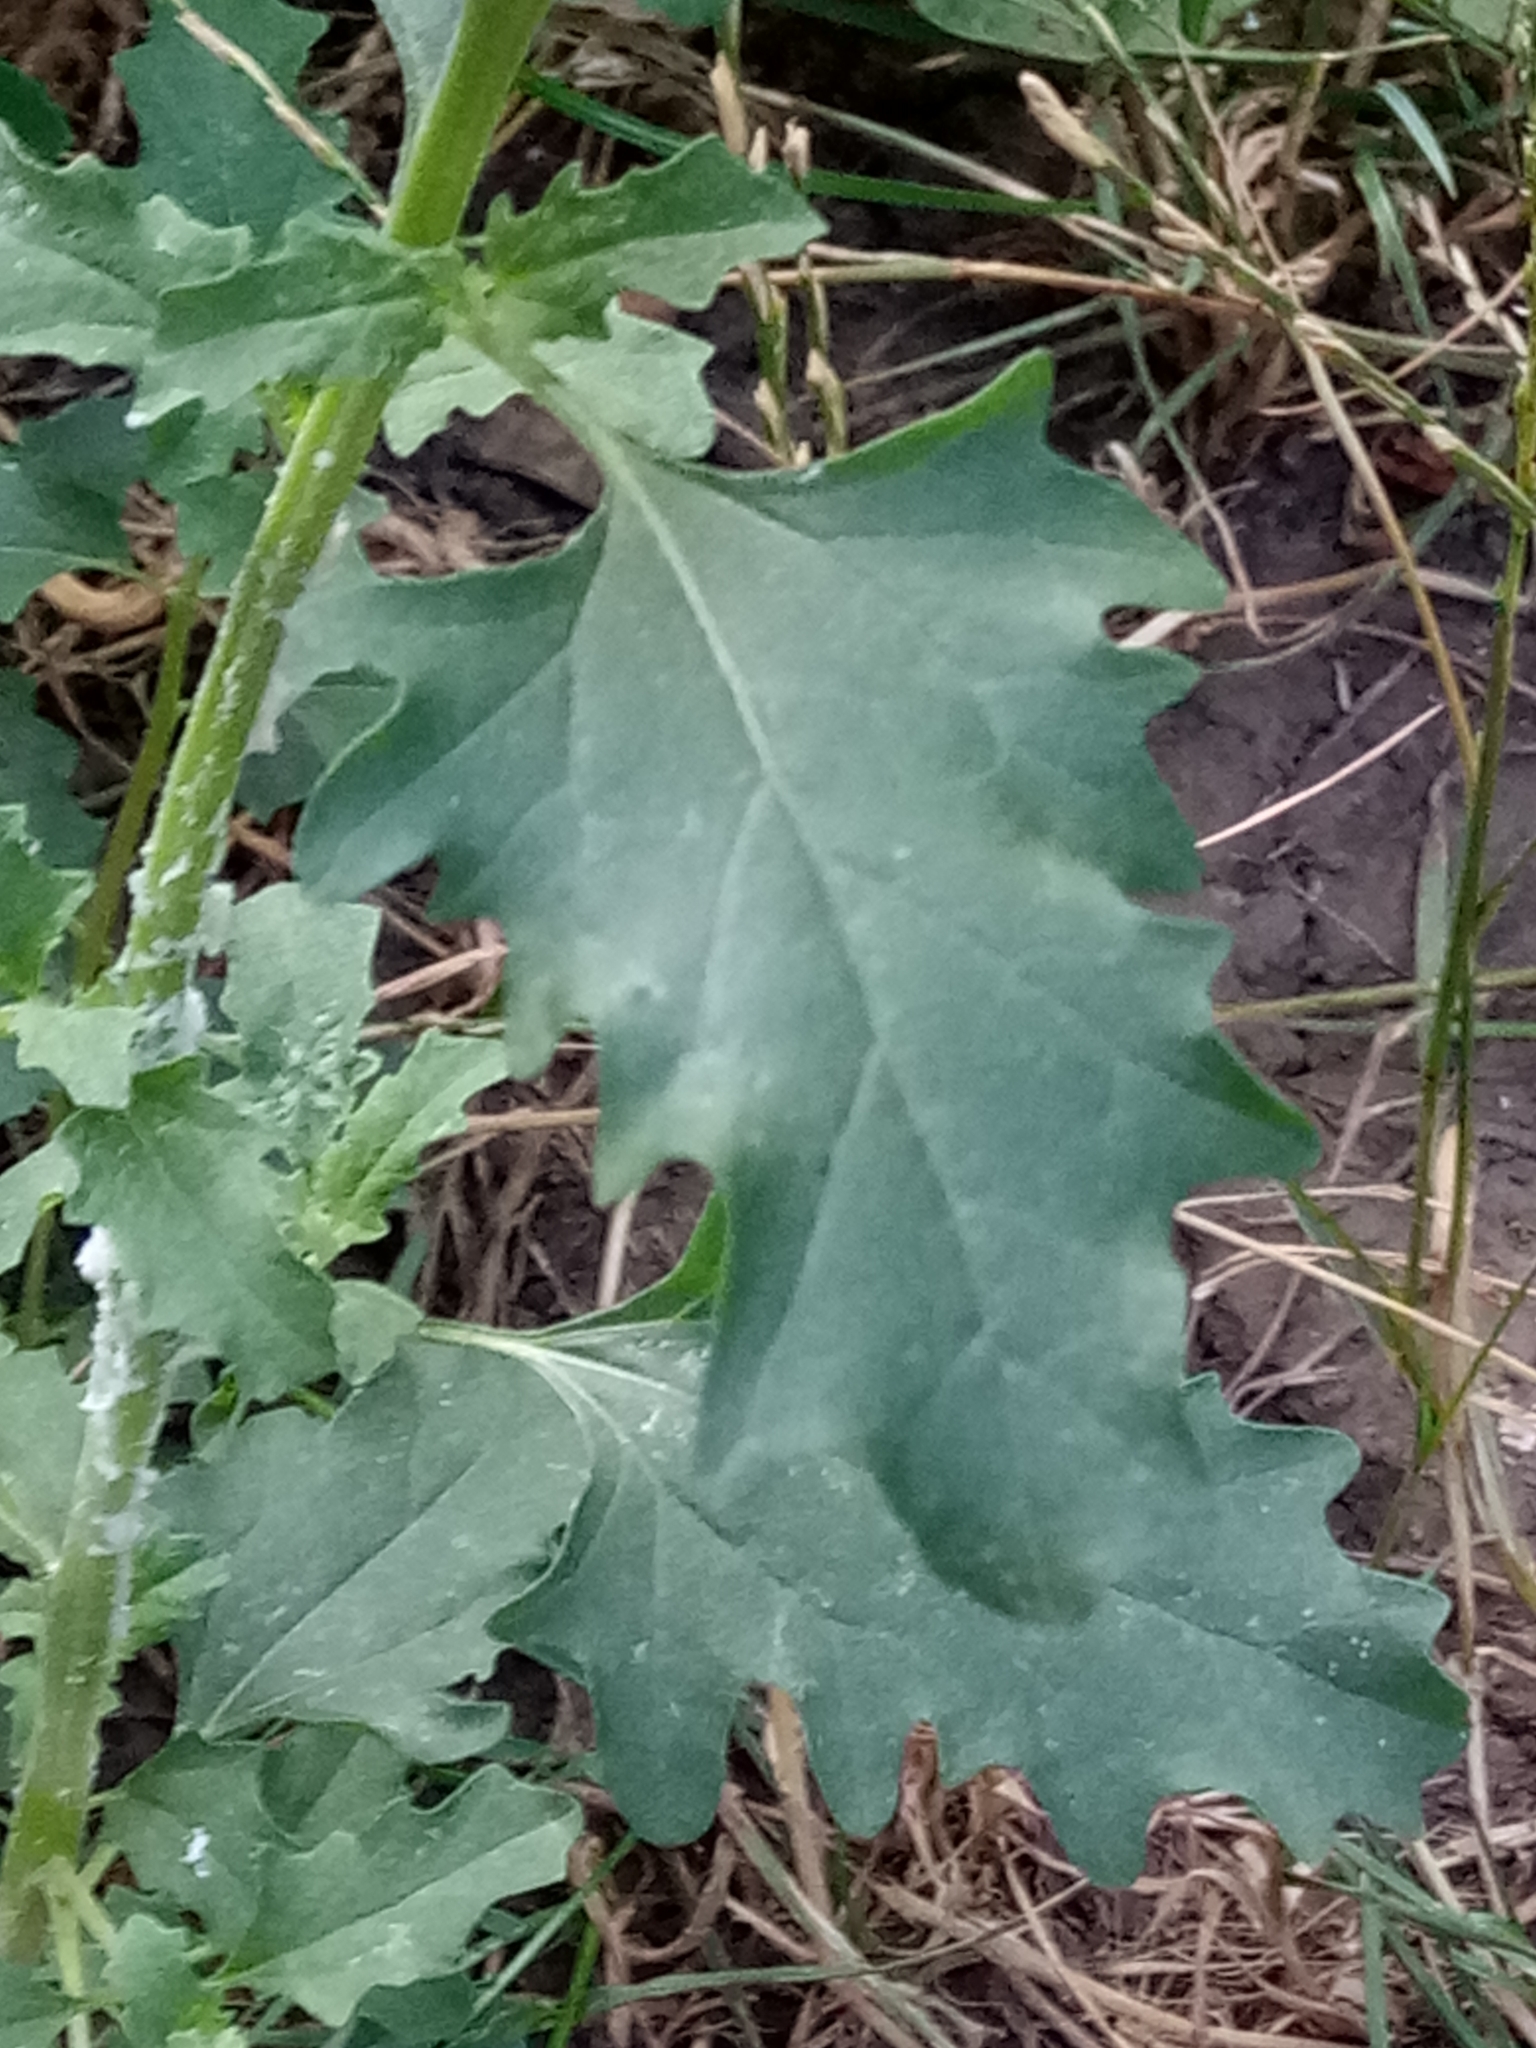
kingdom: Plantae
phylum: Tracheophyta
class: Magnoliopsida
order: Solanales
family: Solanaceae
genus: Datura
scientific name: Datura stramonium
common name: Thorn-apple
